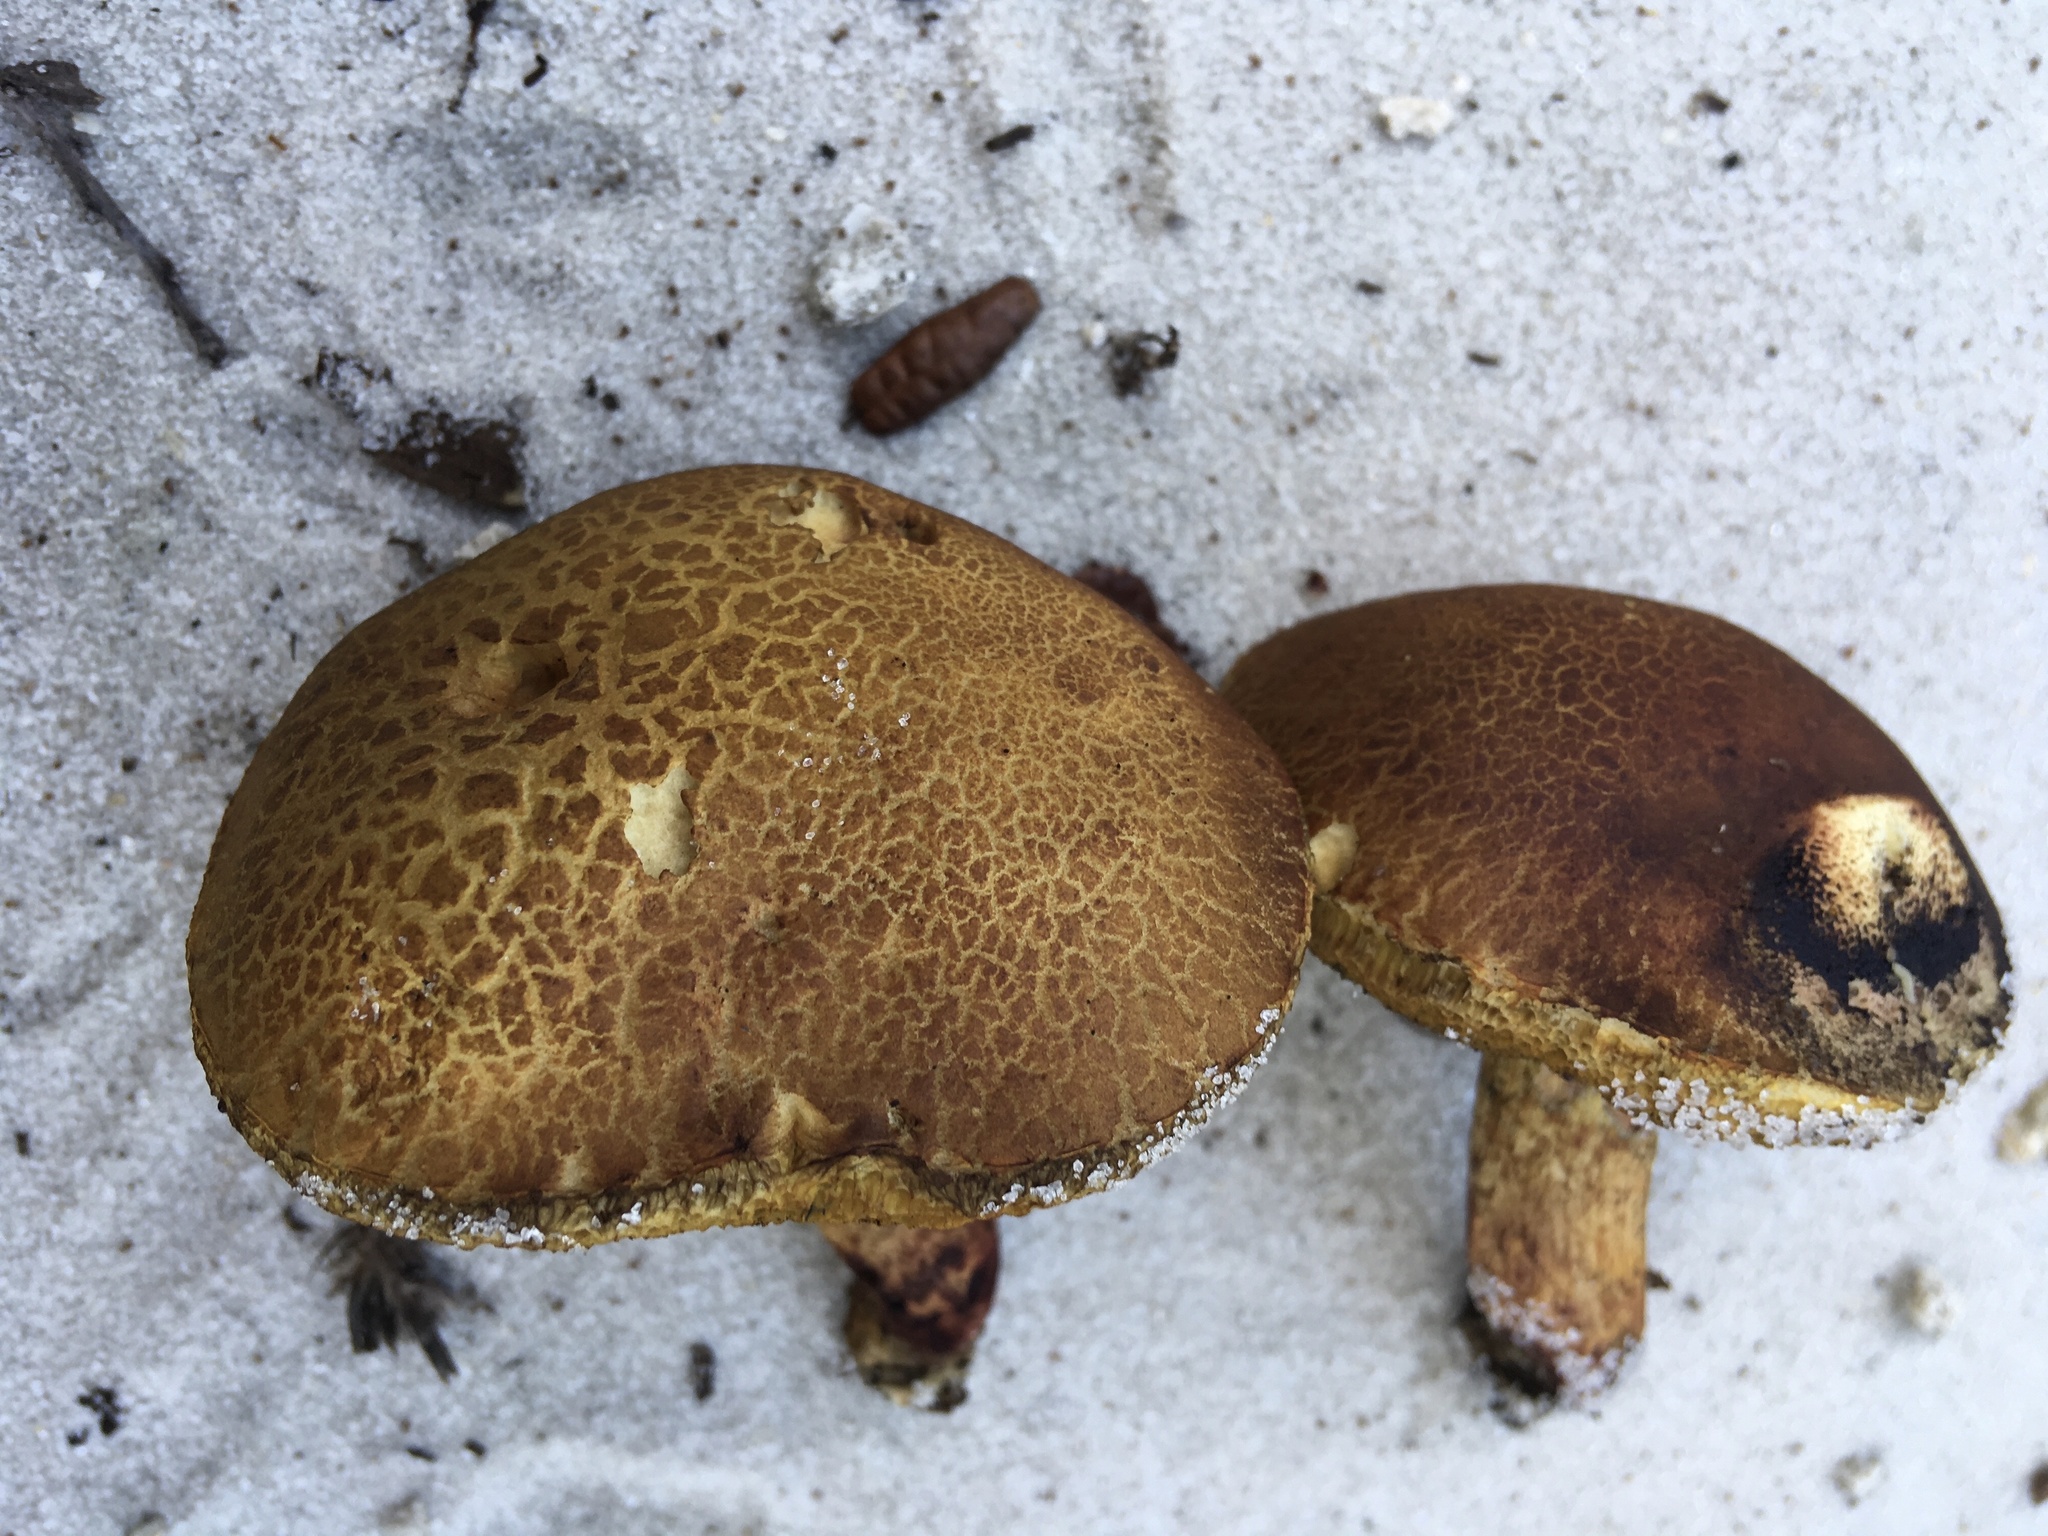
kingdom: Fungi
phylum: Basidiomycota
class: Agaricomycetes
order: Boletales
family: Boletaceae
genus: Alessioporus
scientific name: Alessioporus rubriflavus
